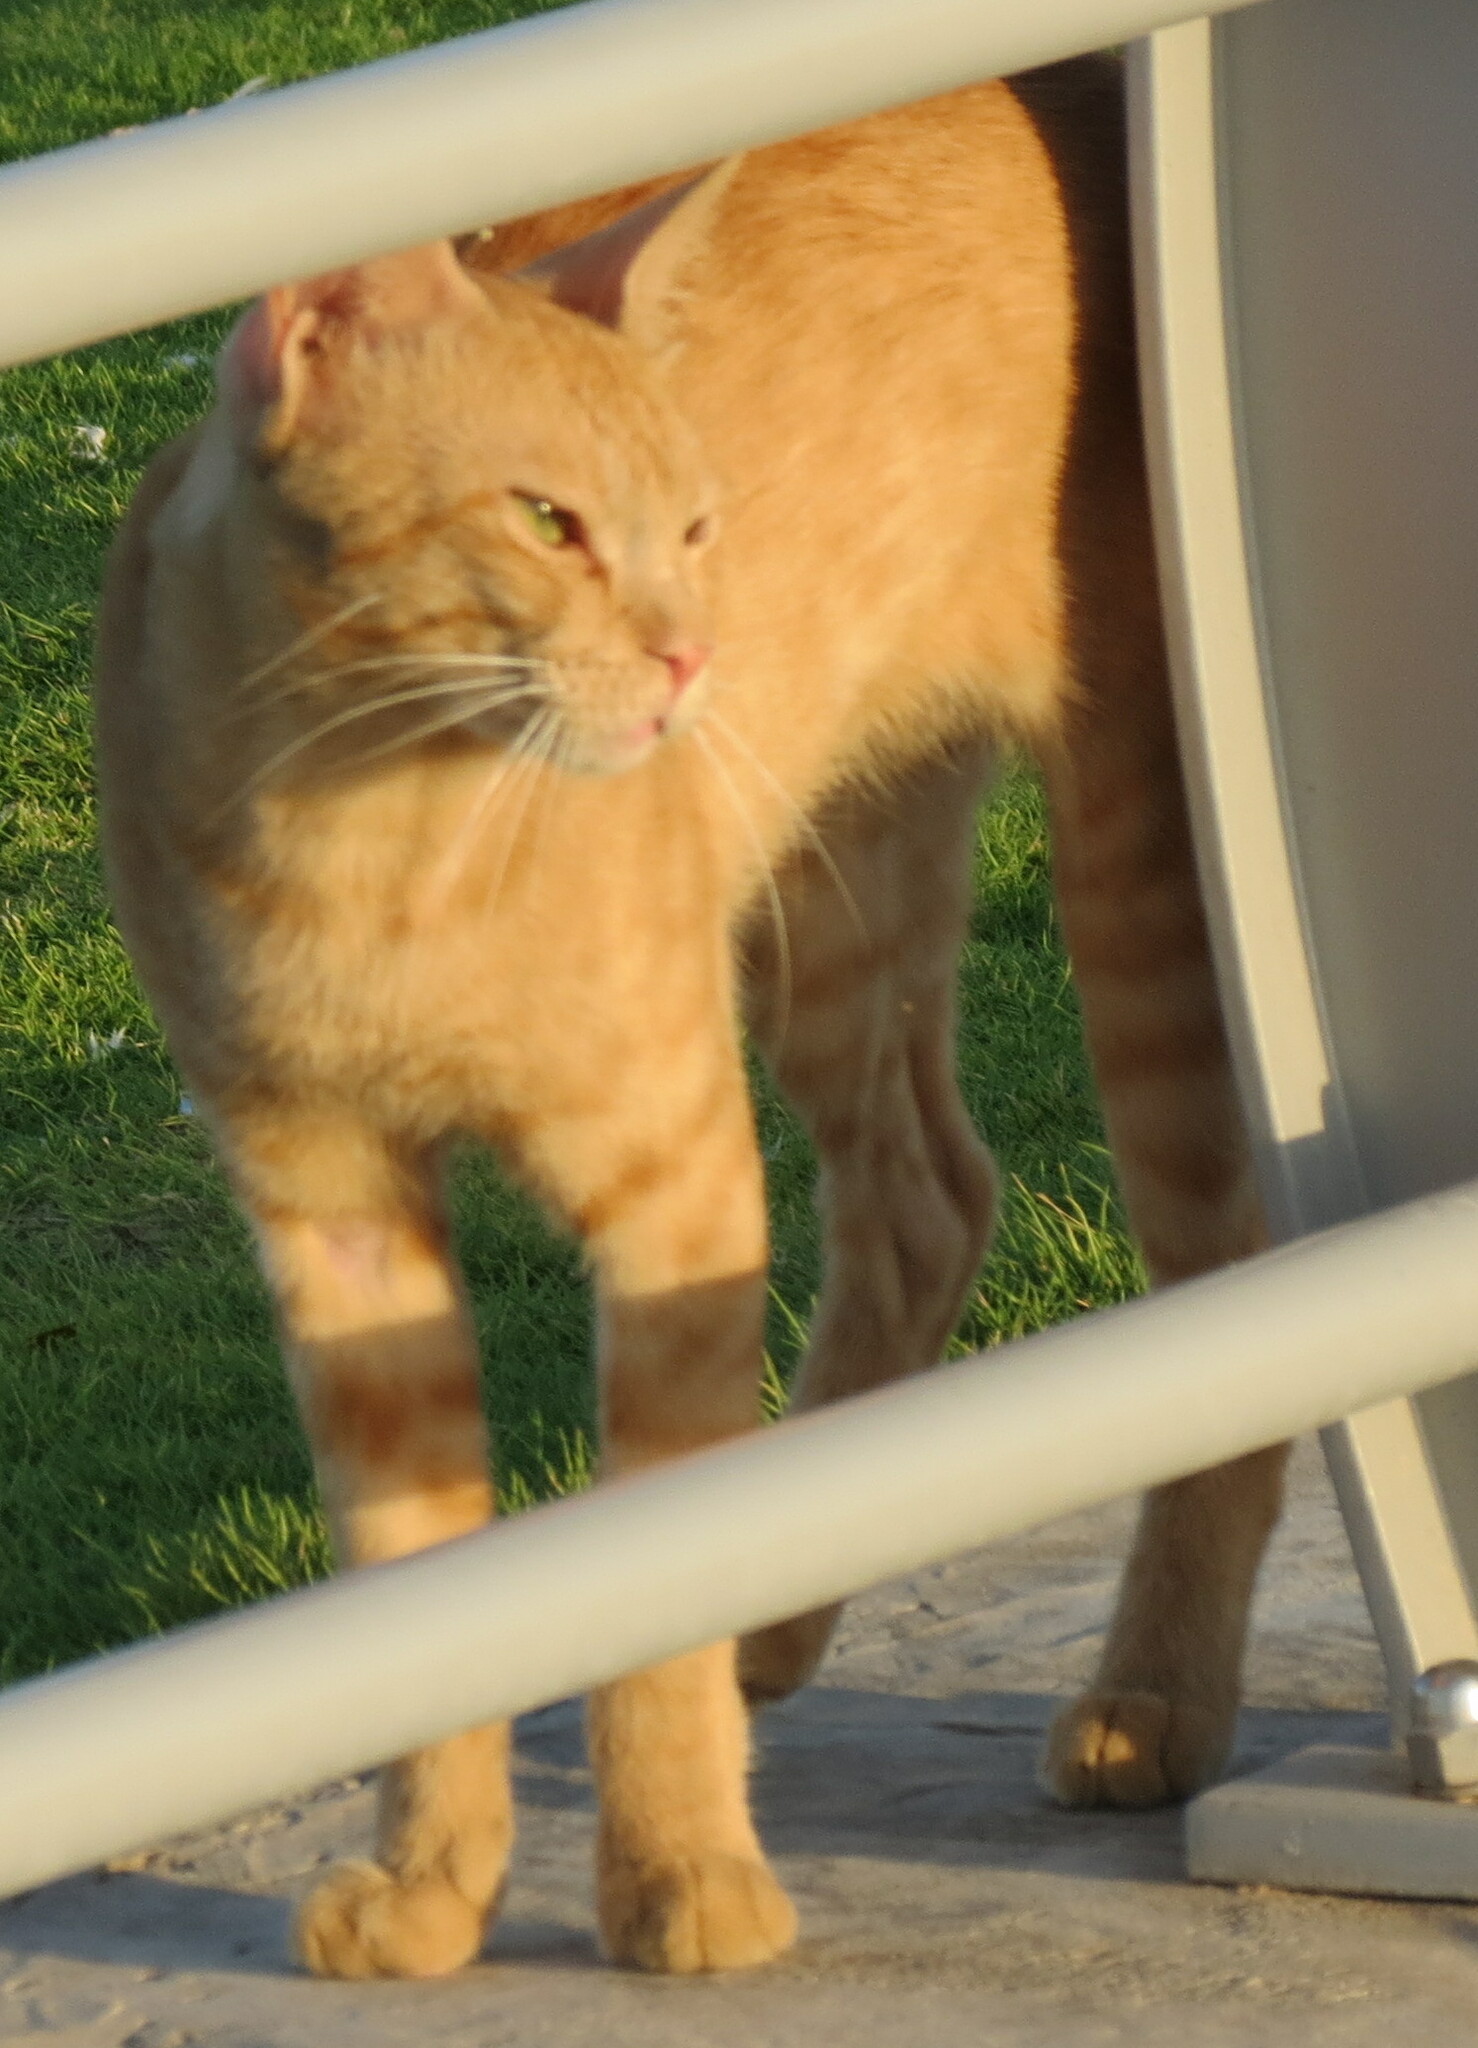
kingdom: Animalia
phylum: Chordata
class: Mammalia
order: Carnivora
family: Felidae
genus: Felis
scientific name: Felis catus
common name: Domestic cat
